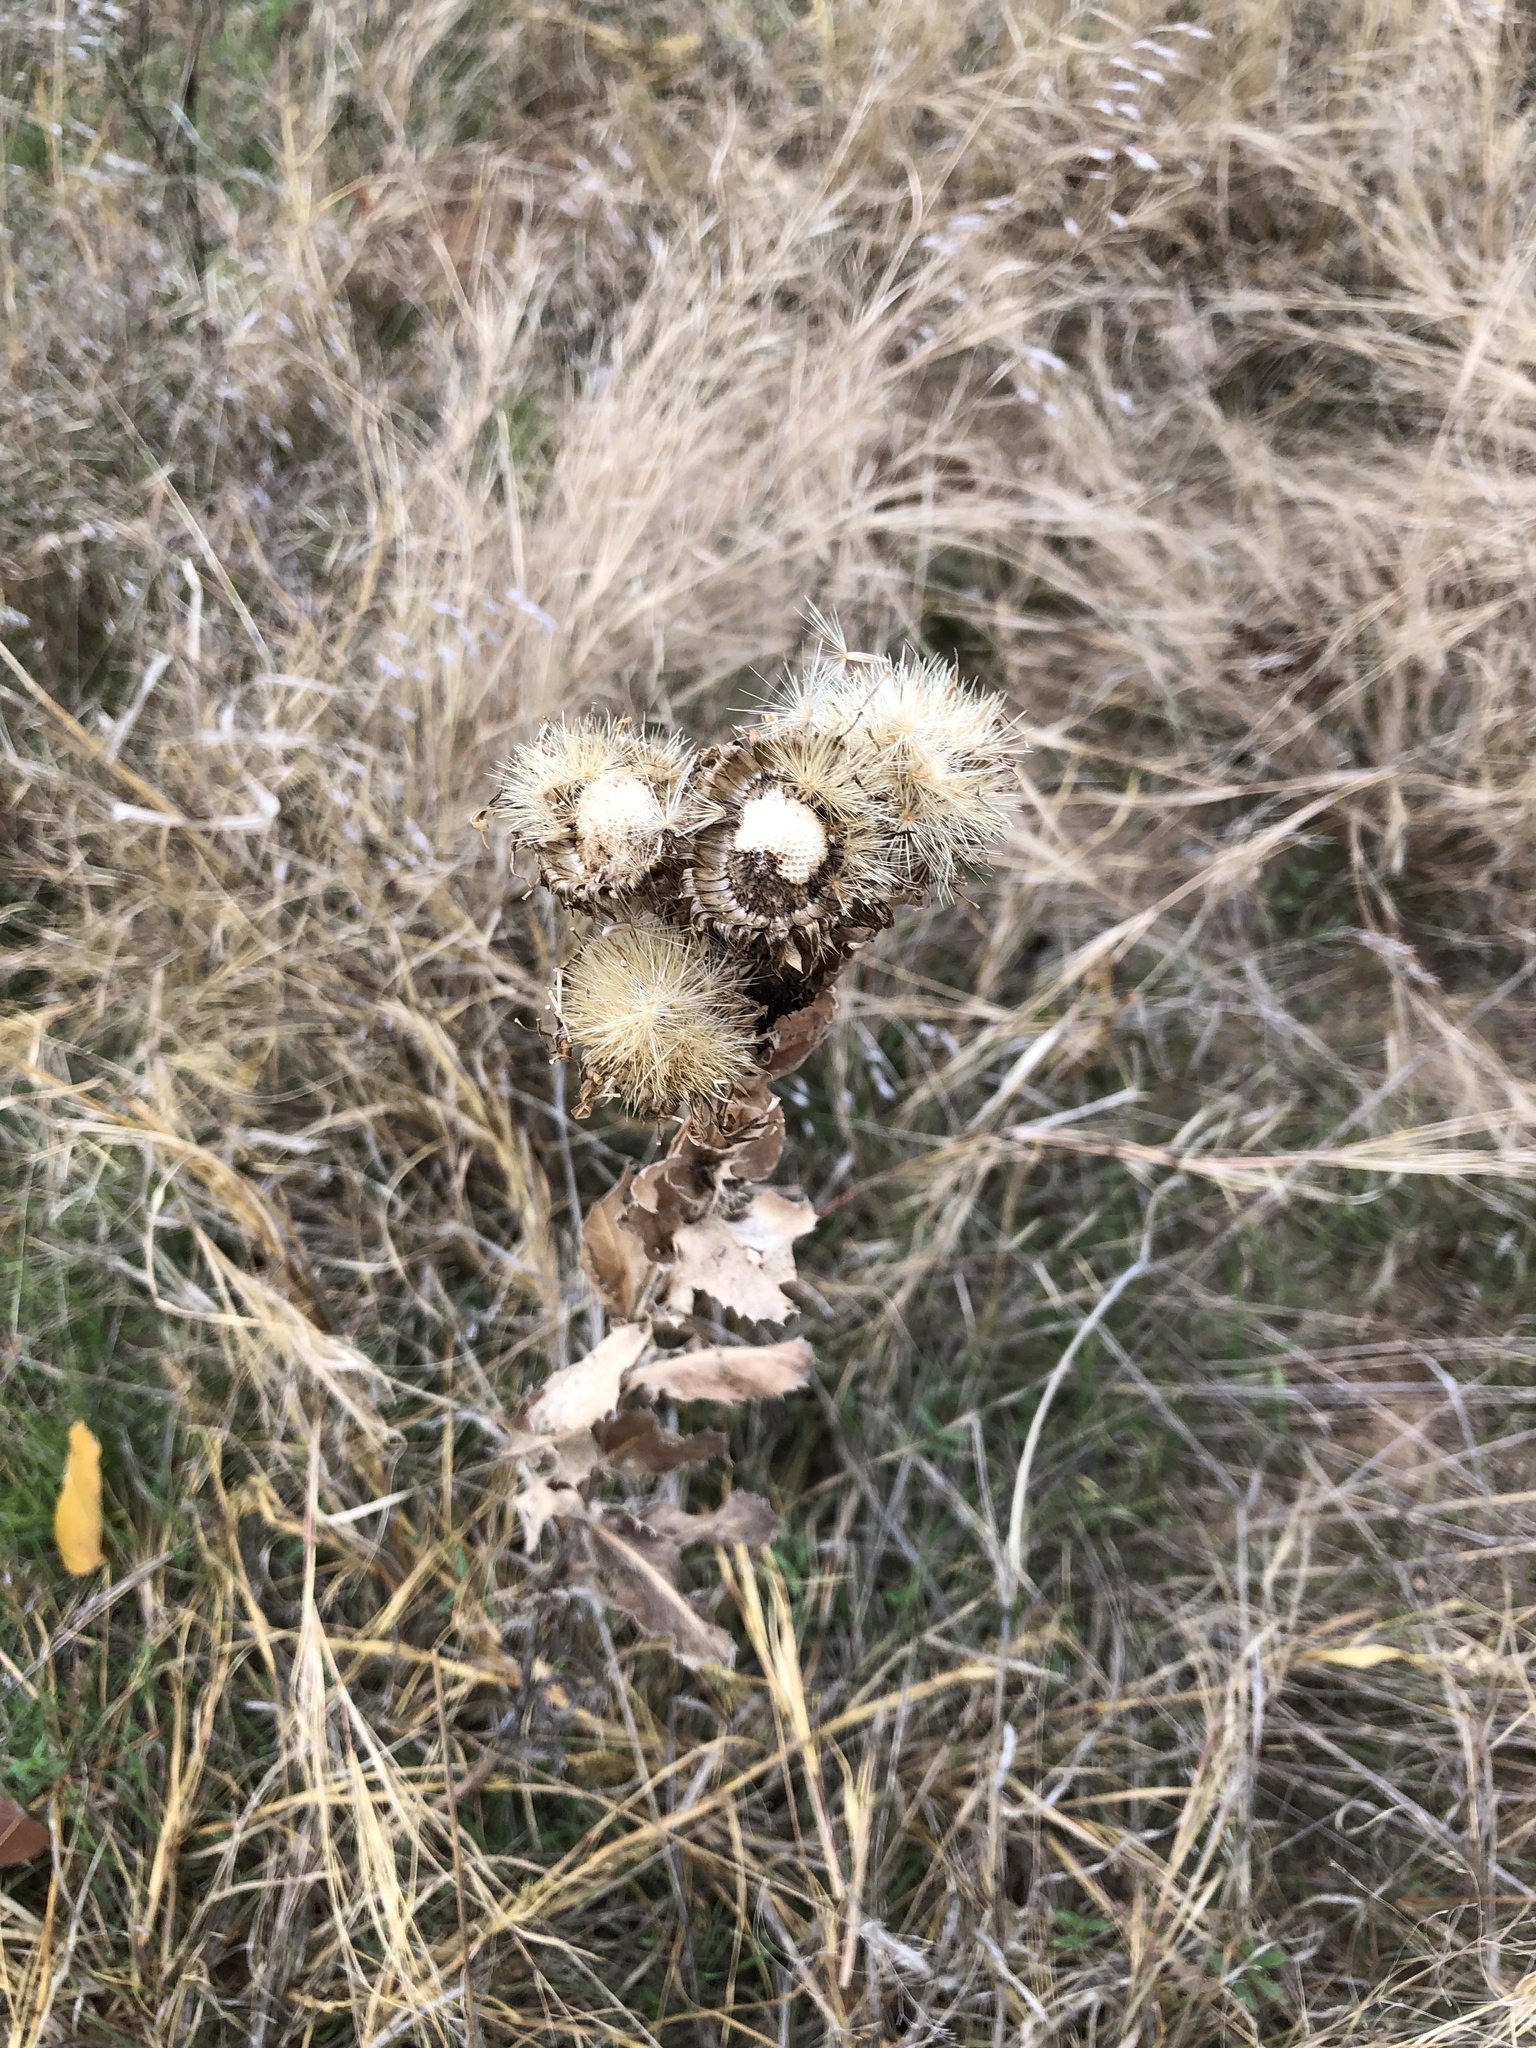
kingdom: Plantae
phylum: Tracheophyta
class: Magnoliopsida
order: Asterales
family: Asteraceae
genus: Grindelia
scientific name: Grindelia ciliata
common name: Goldenweed
